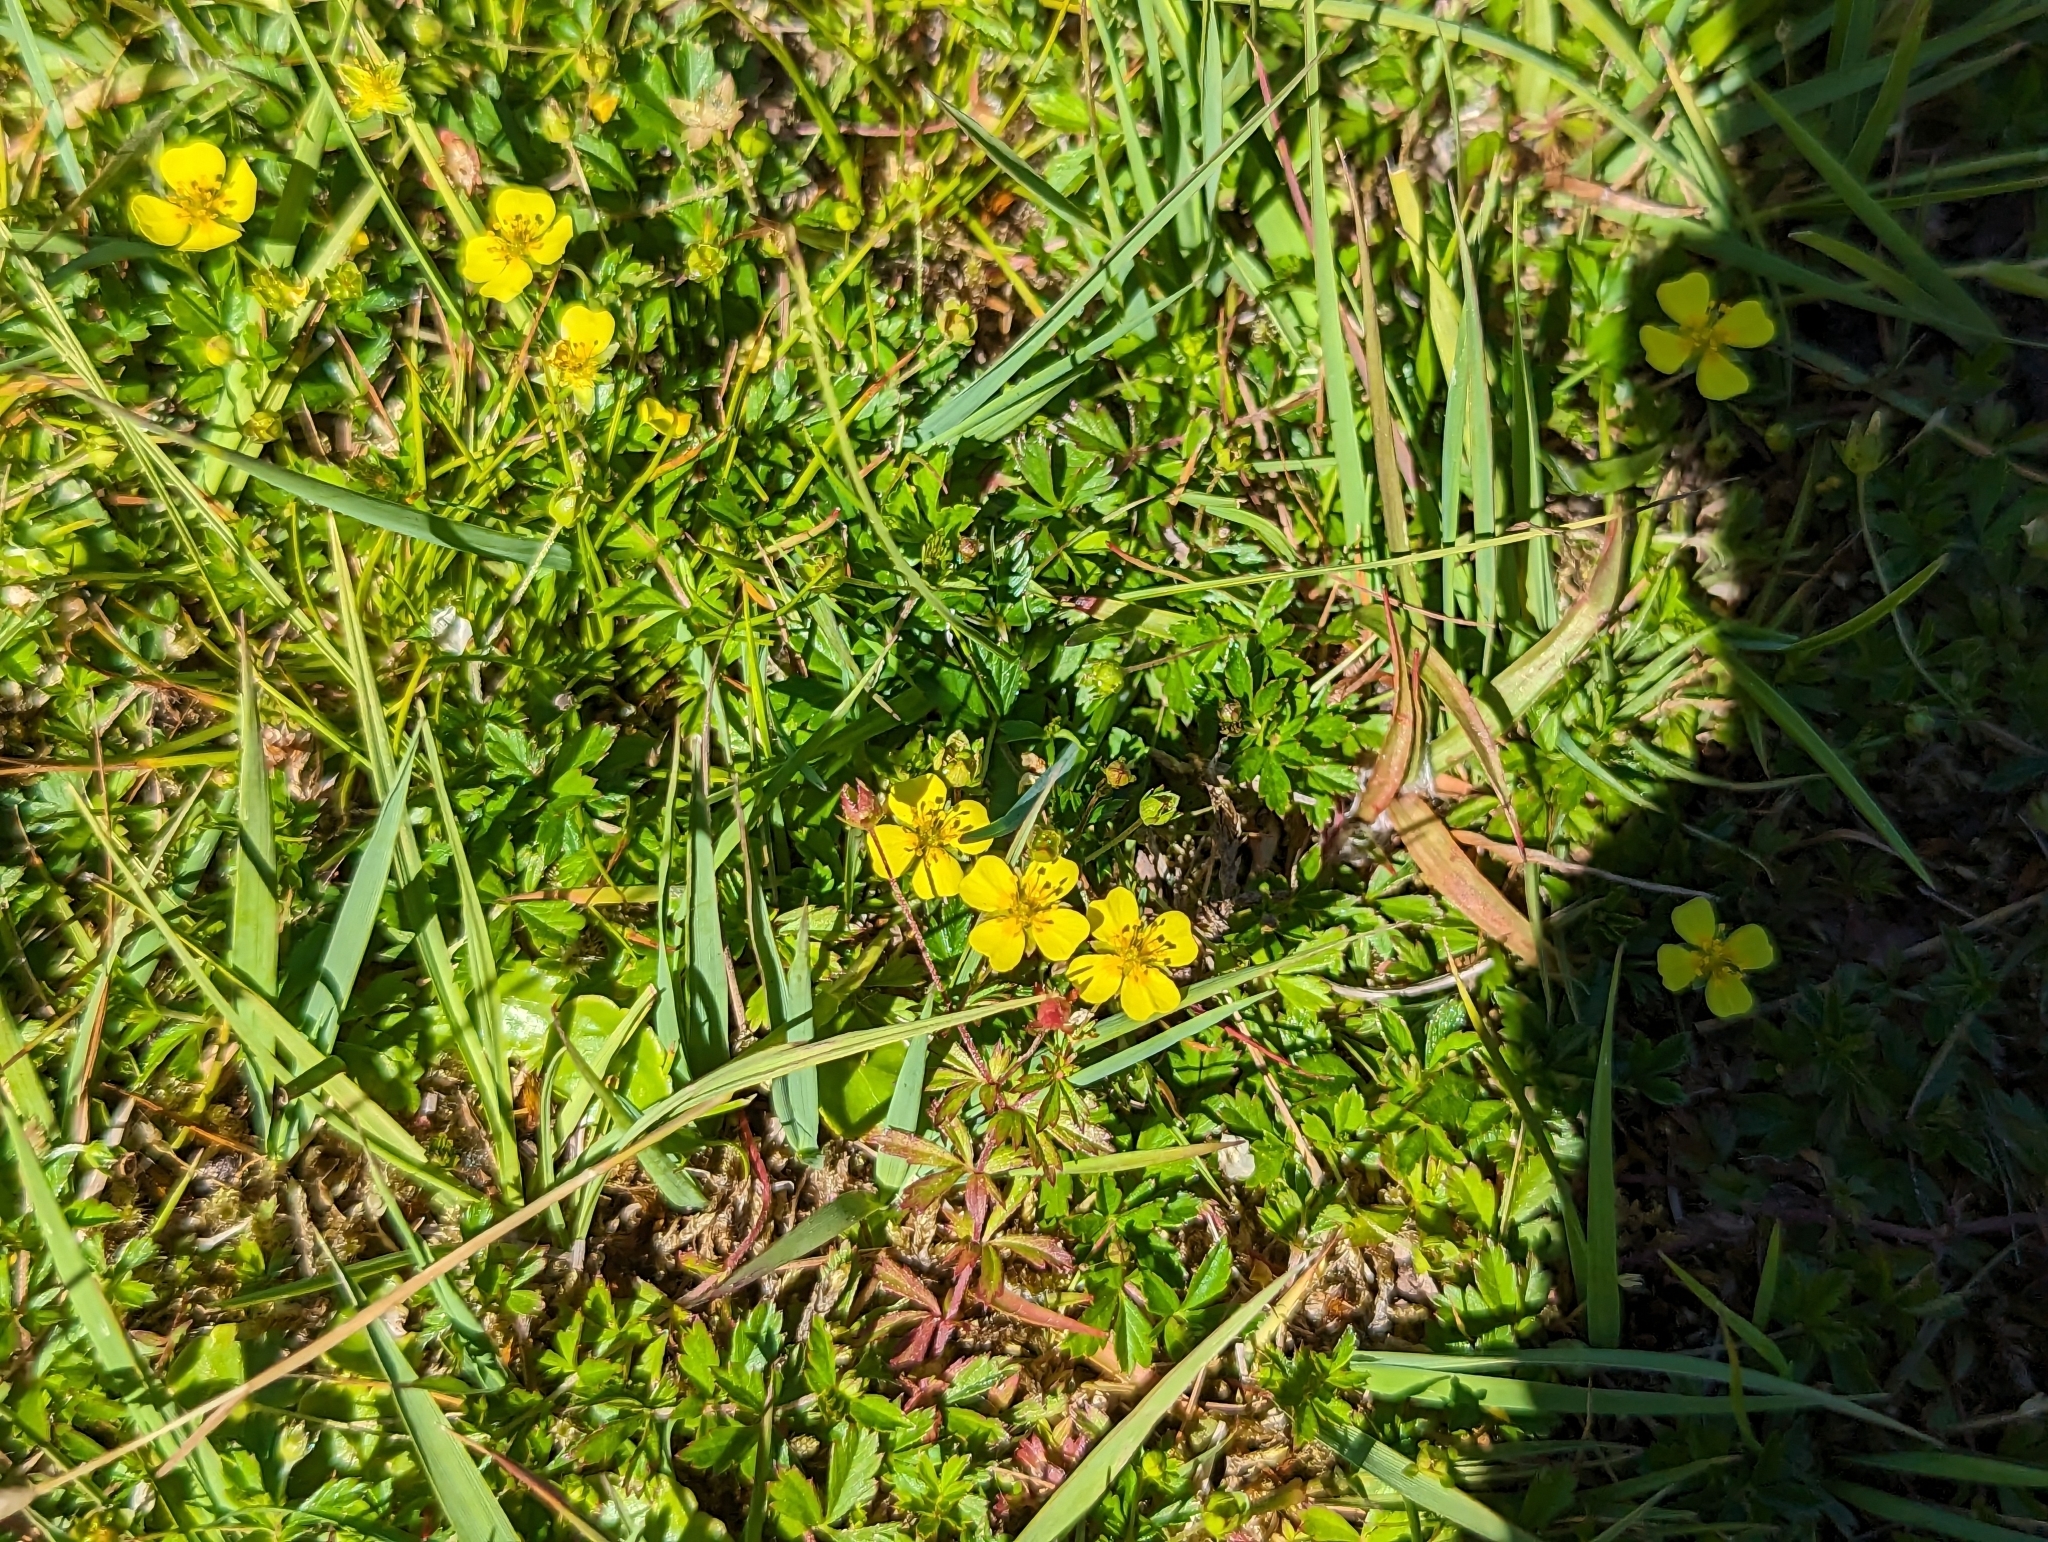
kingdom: Plantae
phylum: Tracheophyta
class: Magnoliopsida
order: Rosales
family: Rosaceae
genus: Potentilla
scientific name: Potentilla erecta
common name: Tormentil
